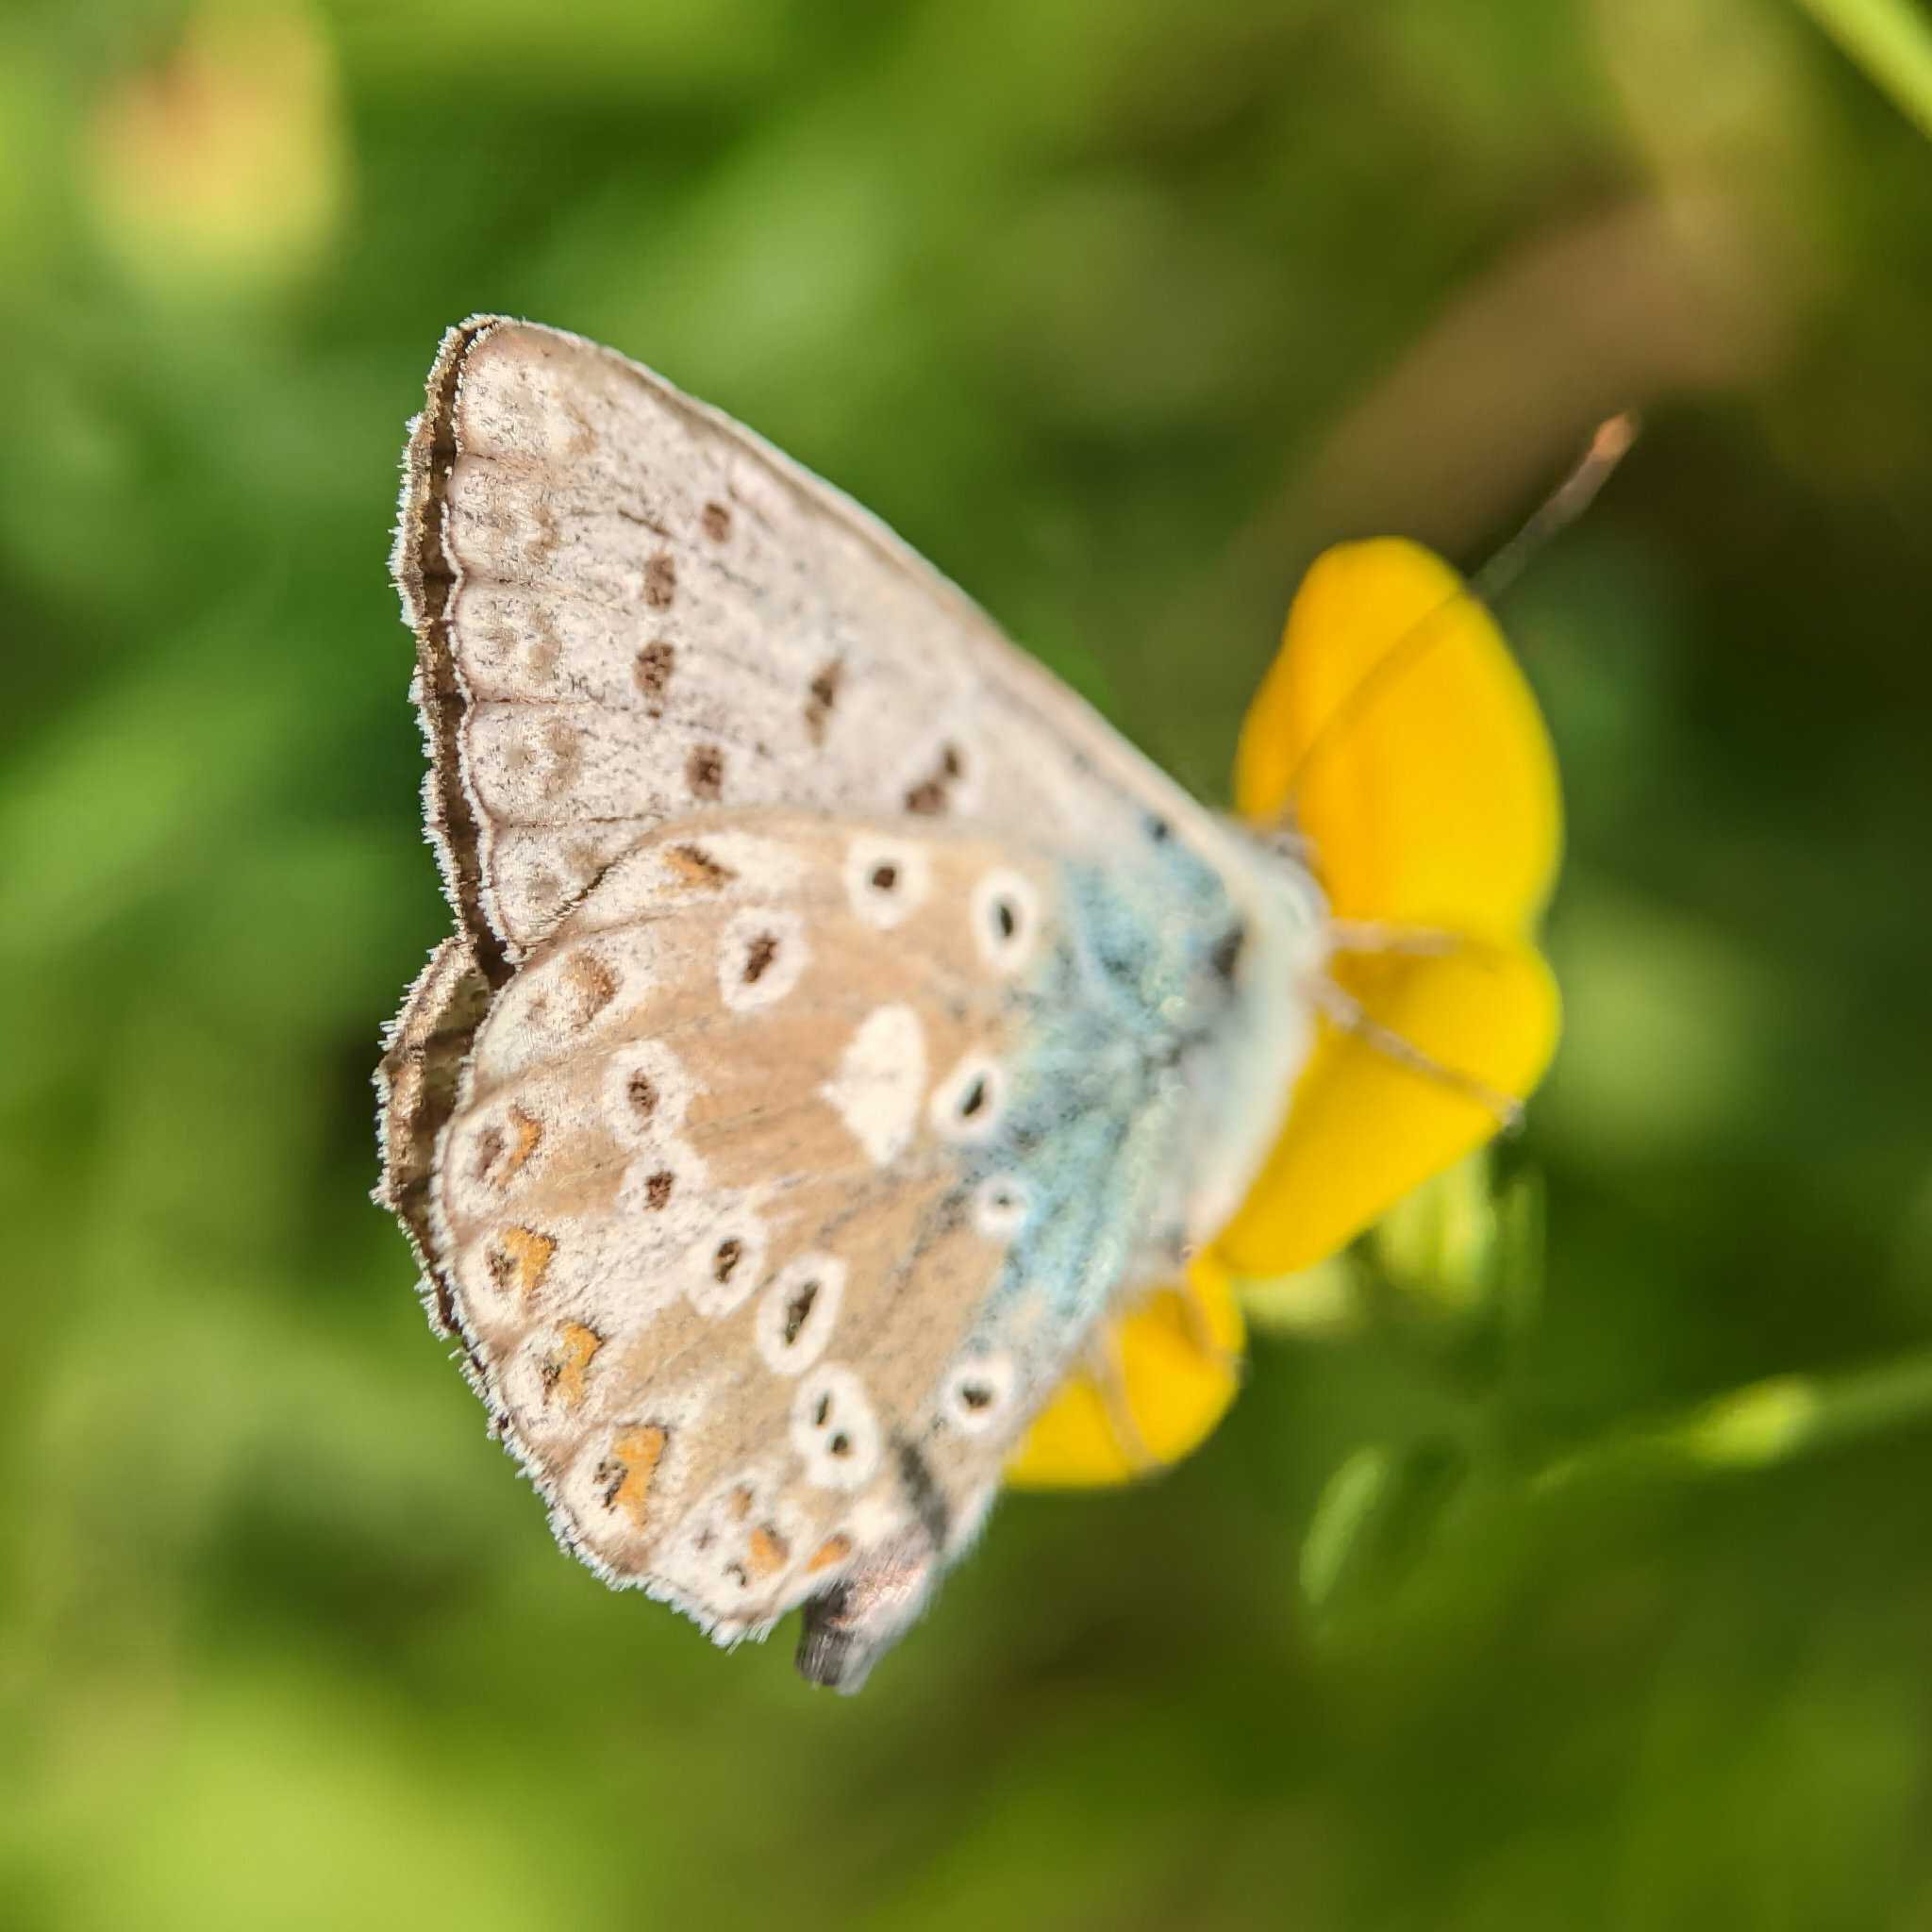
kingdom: Animalia
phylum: Arthropoda
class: Insecta
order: Lepidoptera
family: Lycaenidae
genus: Lysandra
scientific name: Lysandra coridon
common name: Chalkhill blue
